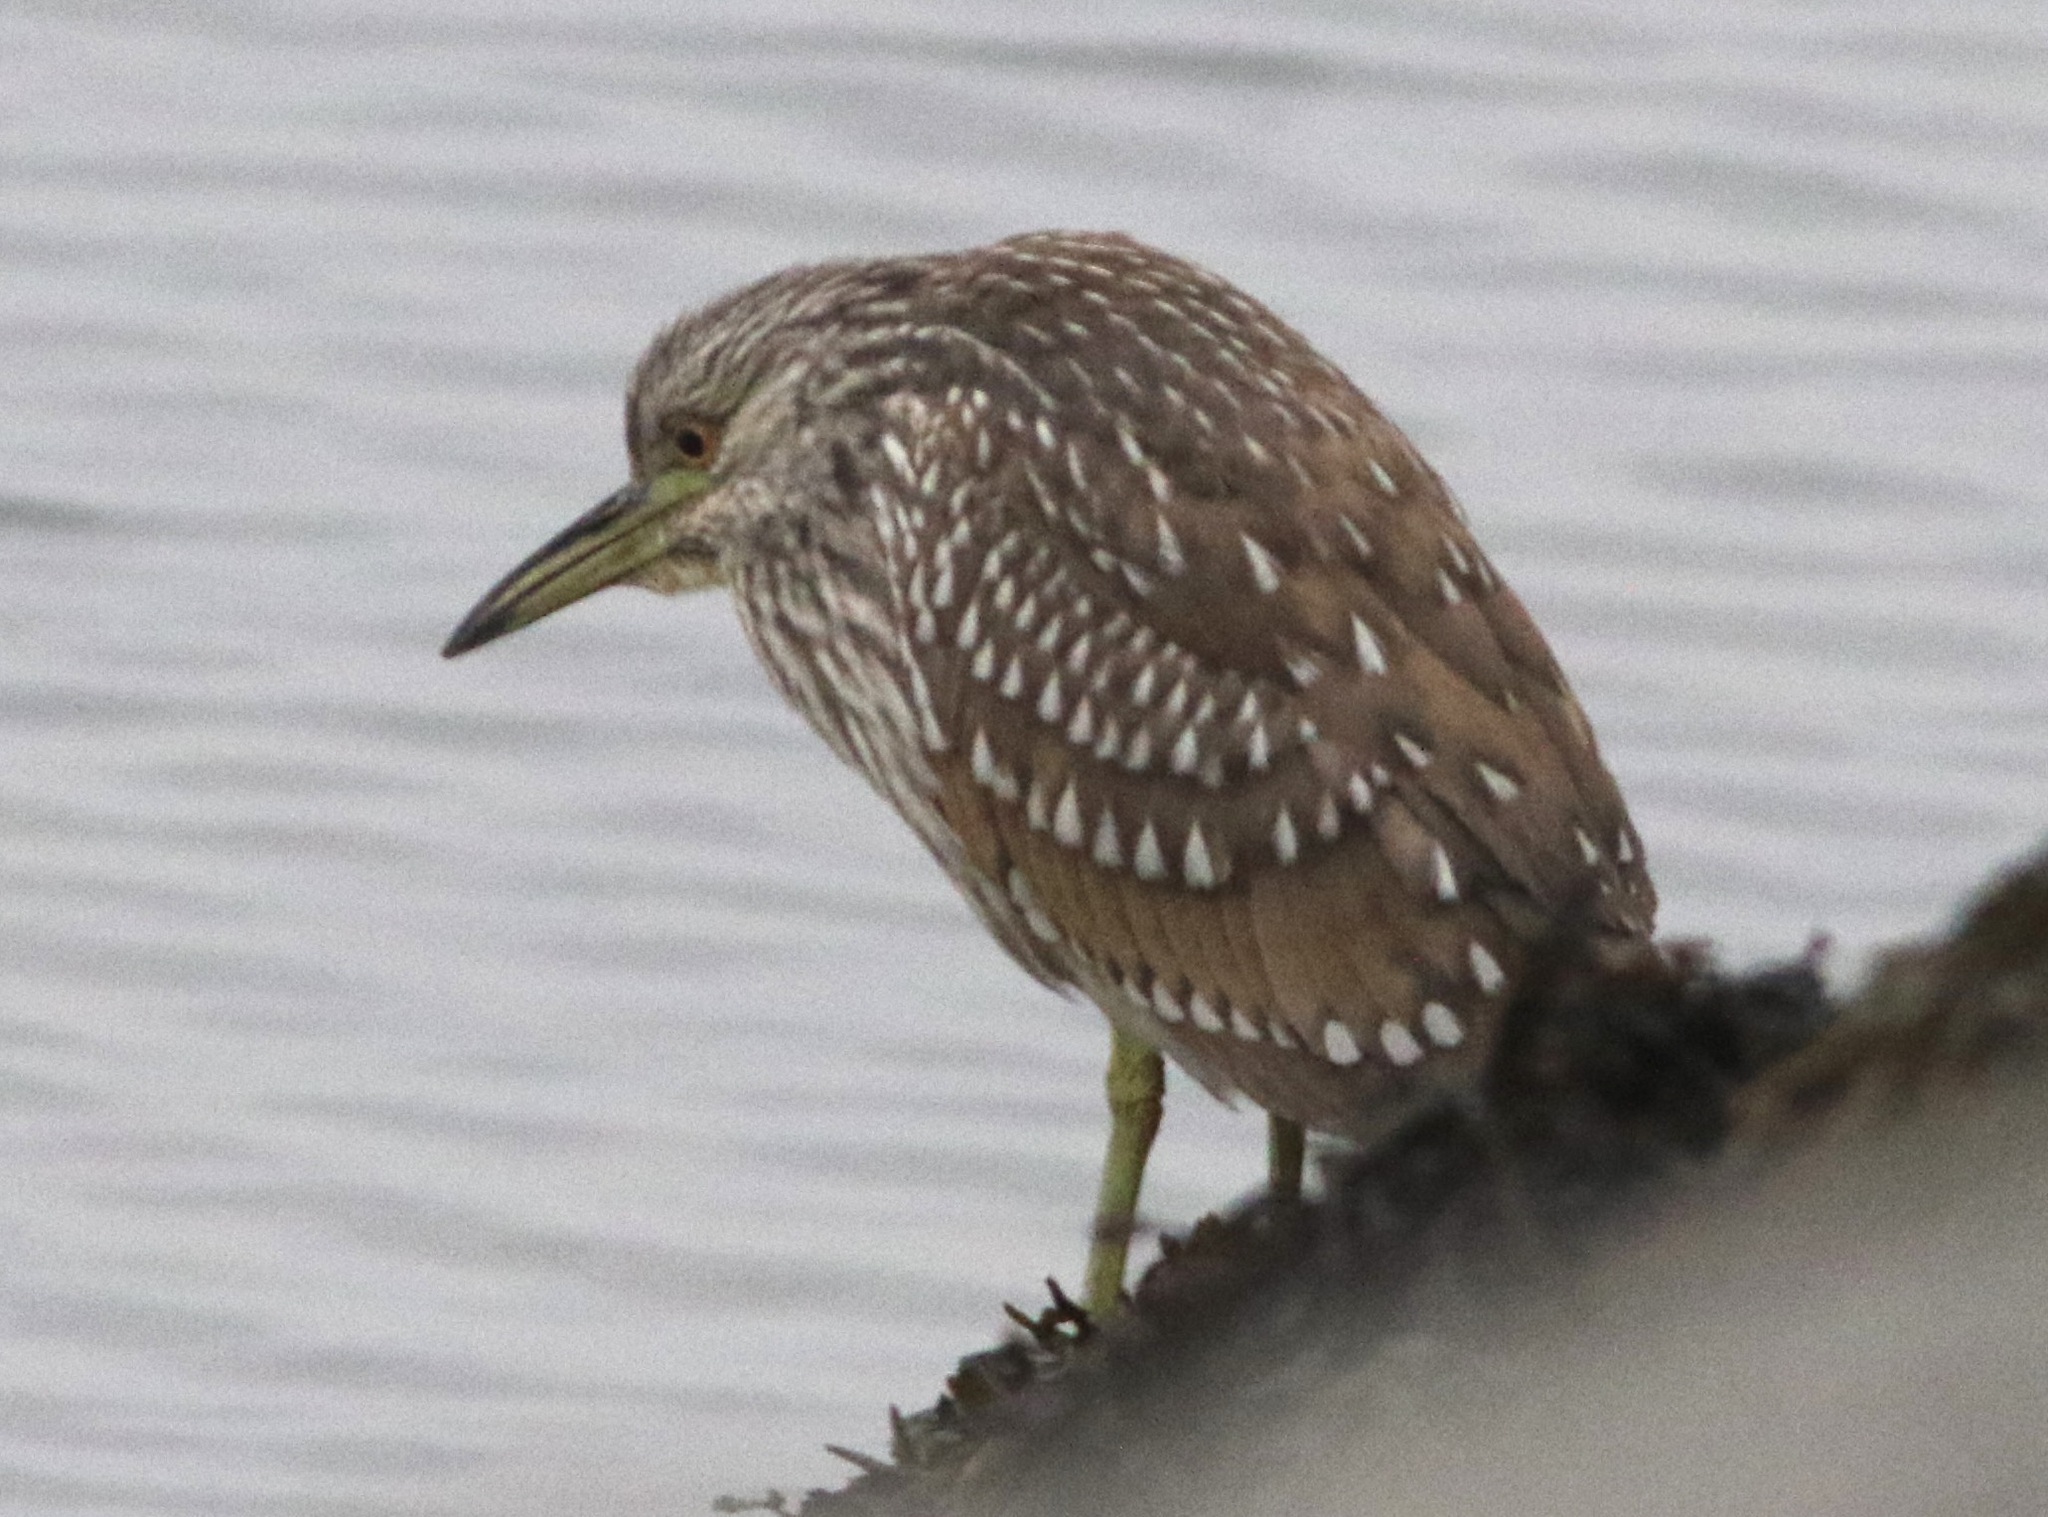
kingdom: Animalia
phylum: Chordata
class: Aves
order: Pelecaniformes
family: Ardeidae
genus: Nycticorax
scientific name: Nycticorax nycticorax
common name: Black-crowned night heron
